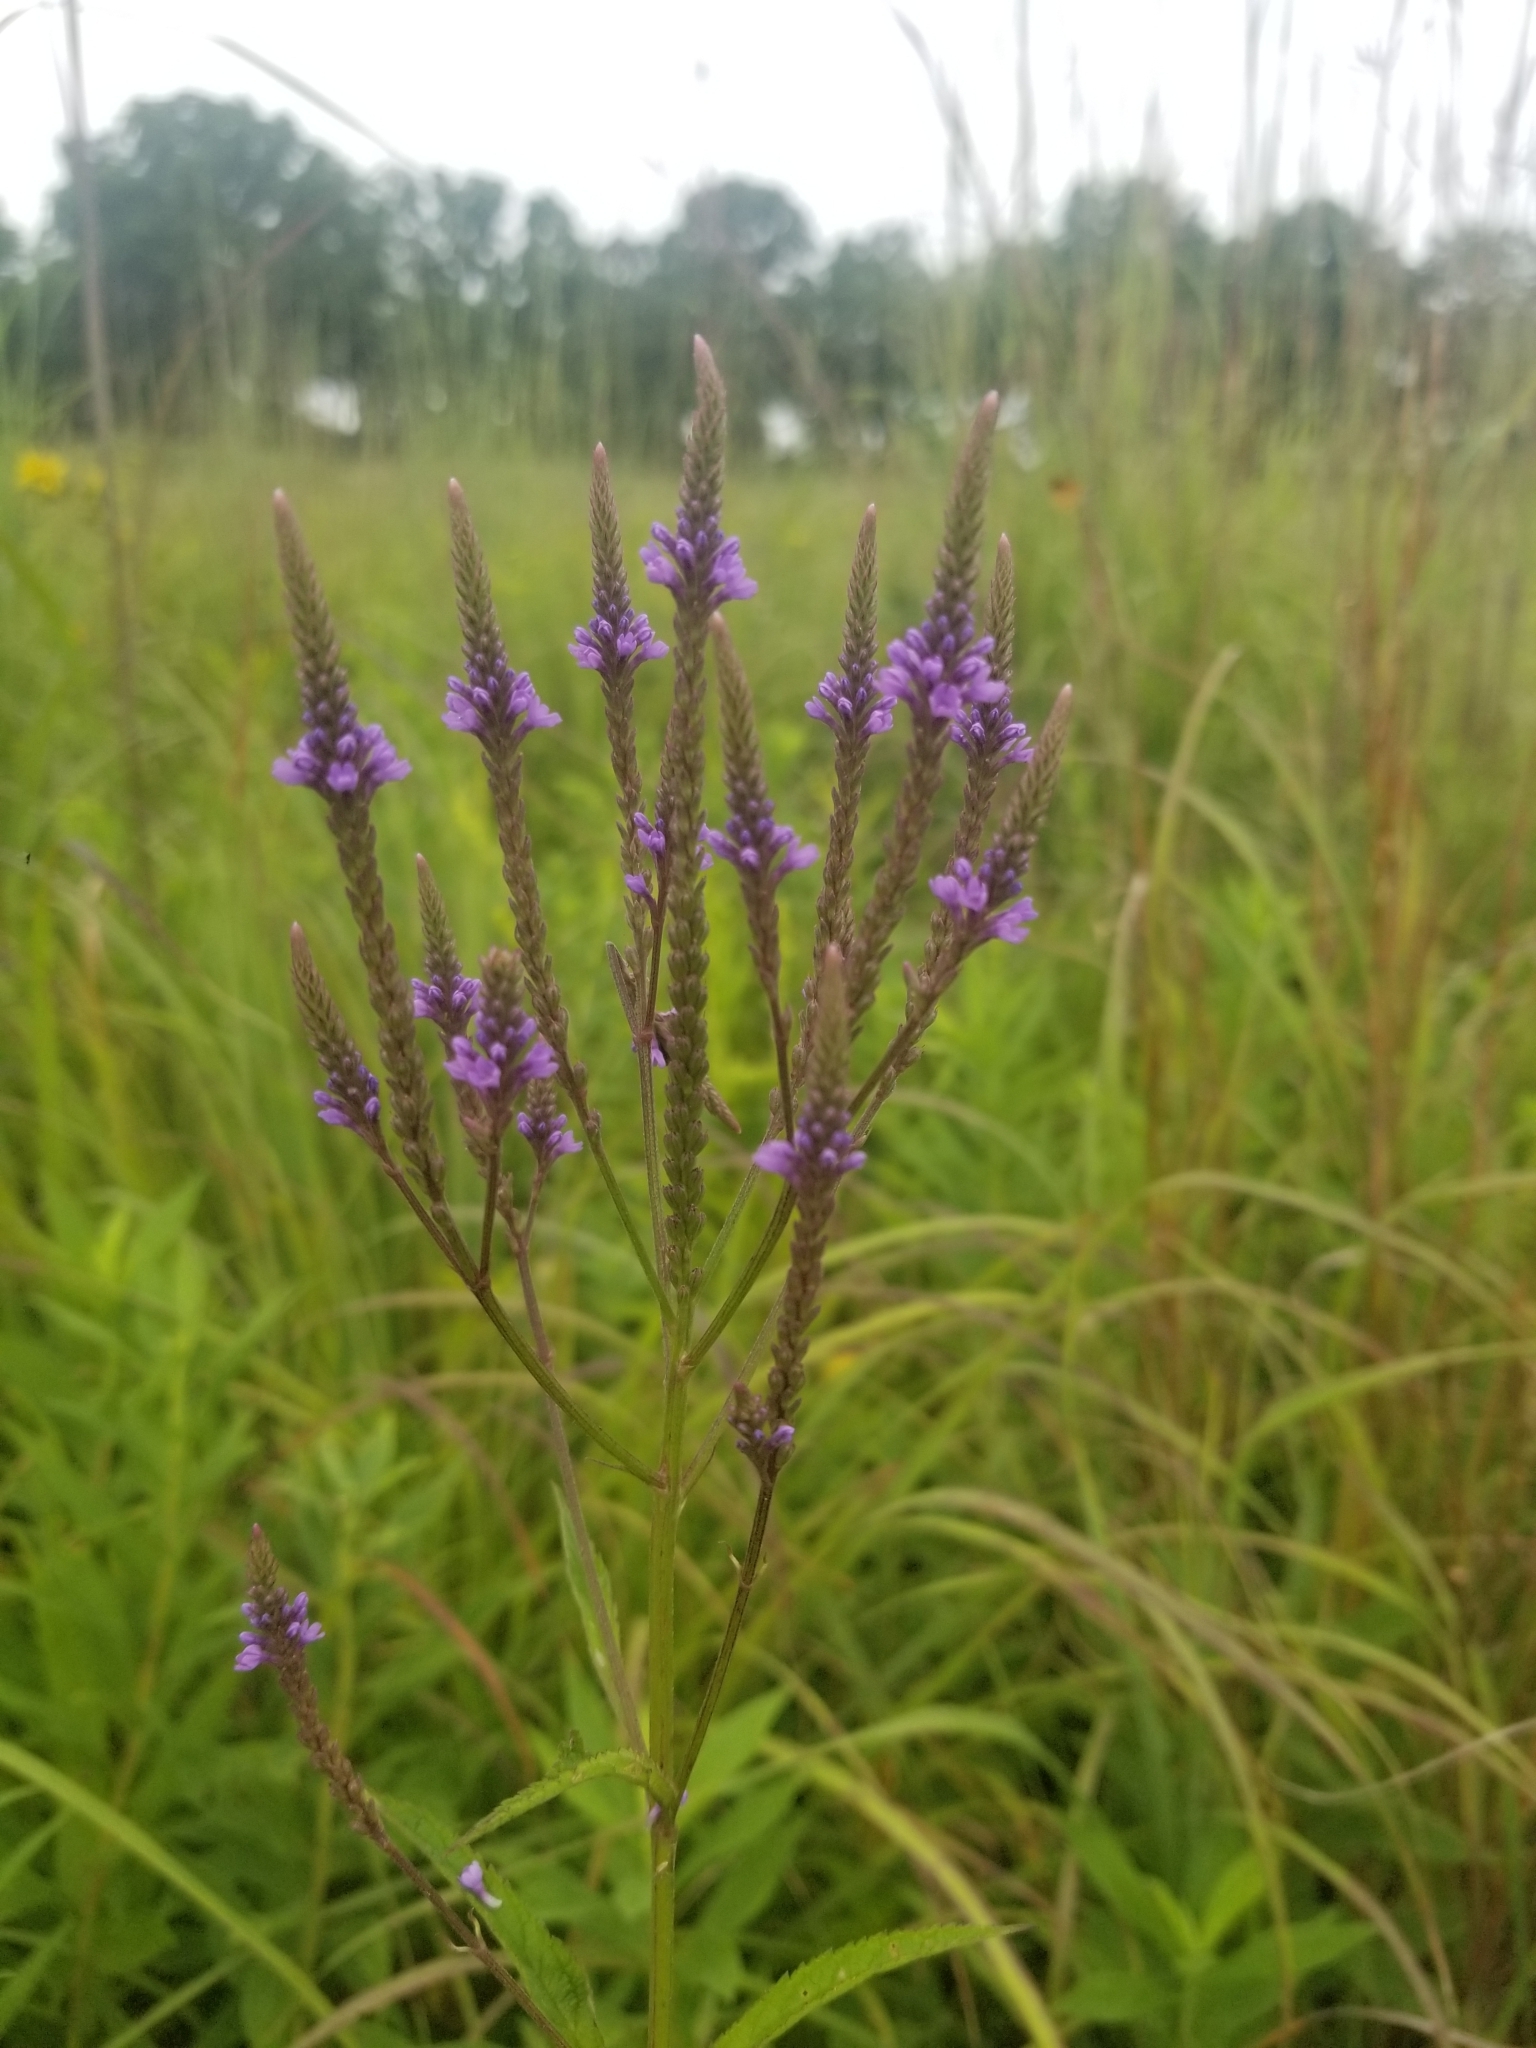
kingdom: Plantae
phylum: Tracheophyta
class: Magnoliopsida
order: Lamiales
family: Verbenaceae
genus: Verbena
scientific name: Verbena hastata
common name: American blue vervain
